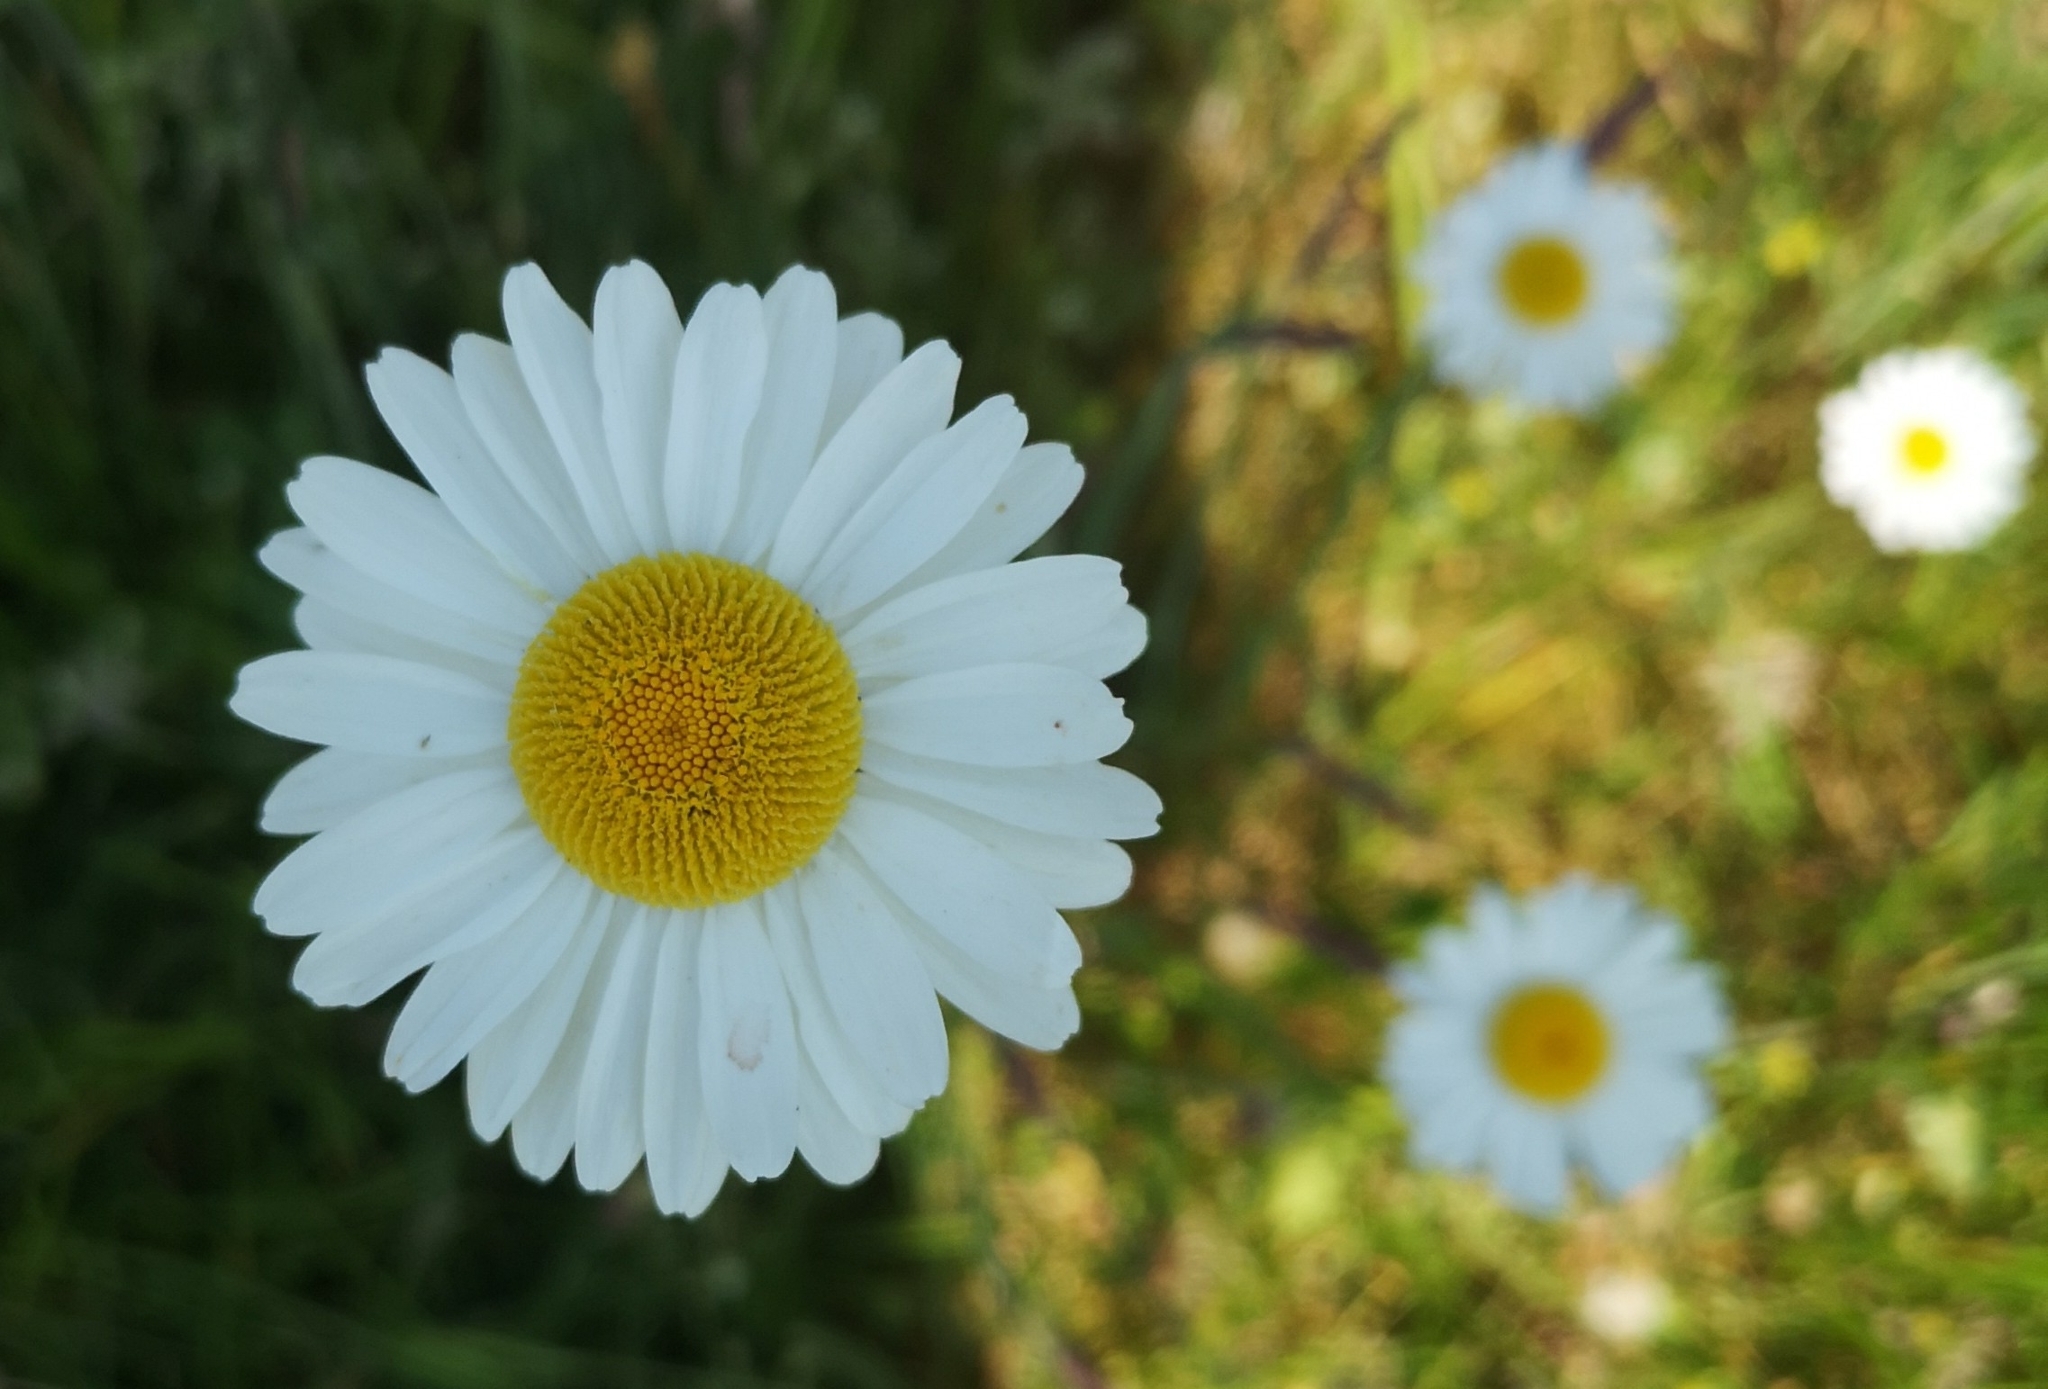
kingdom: Plantae
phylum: Tracheophyta
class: Magnoliopsida
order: Asterales
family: Asteraceae
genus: Leucanthemum
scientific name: Leucanthemum vulgare
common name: Oxeye daisy
